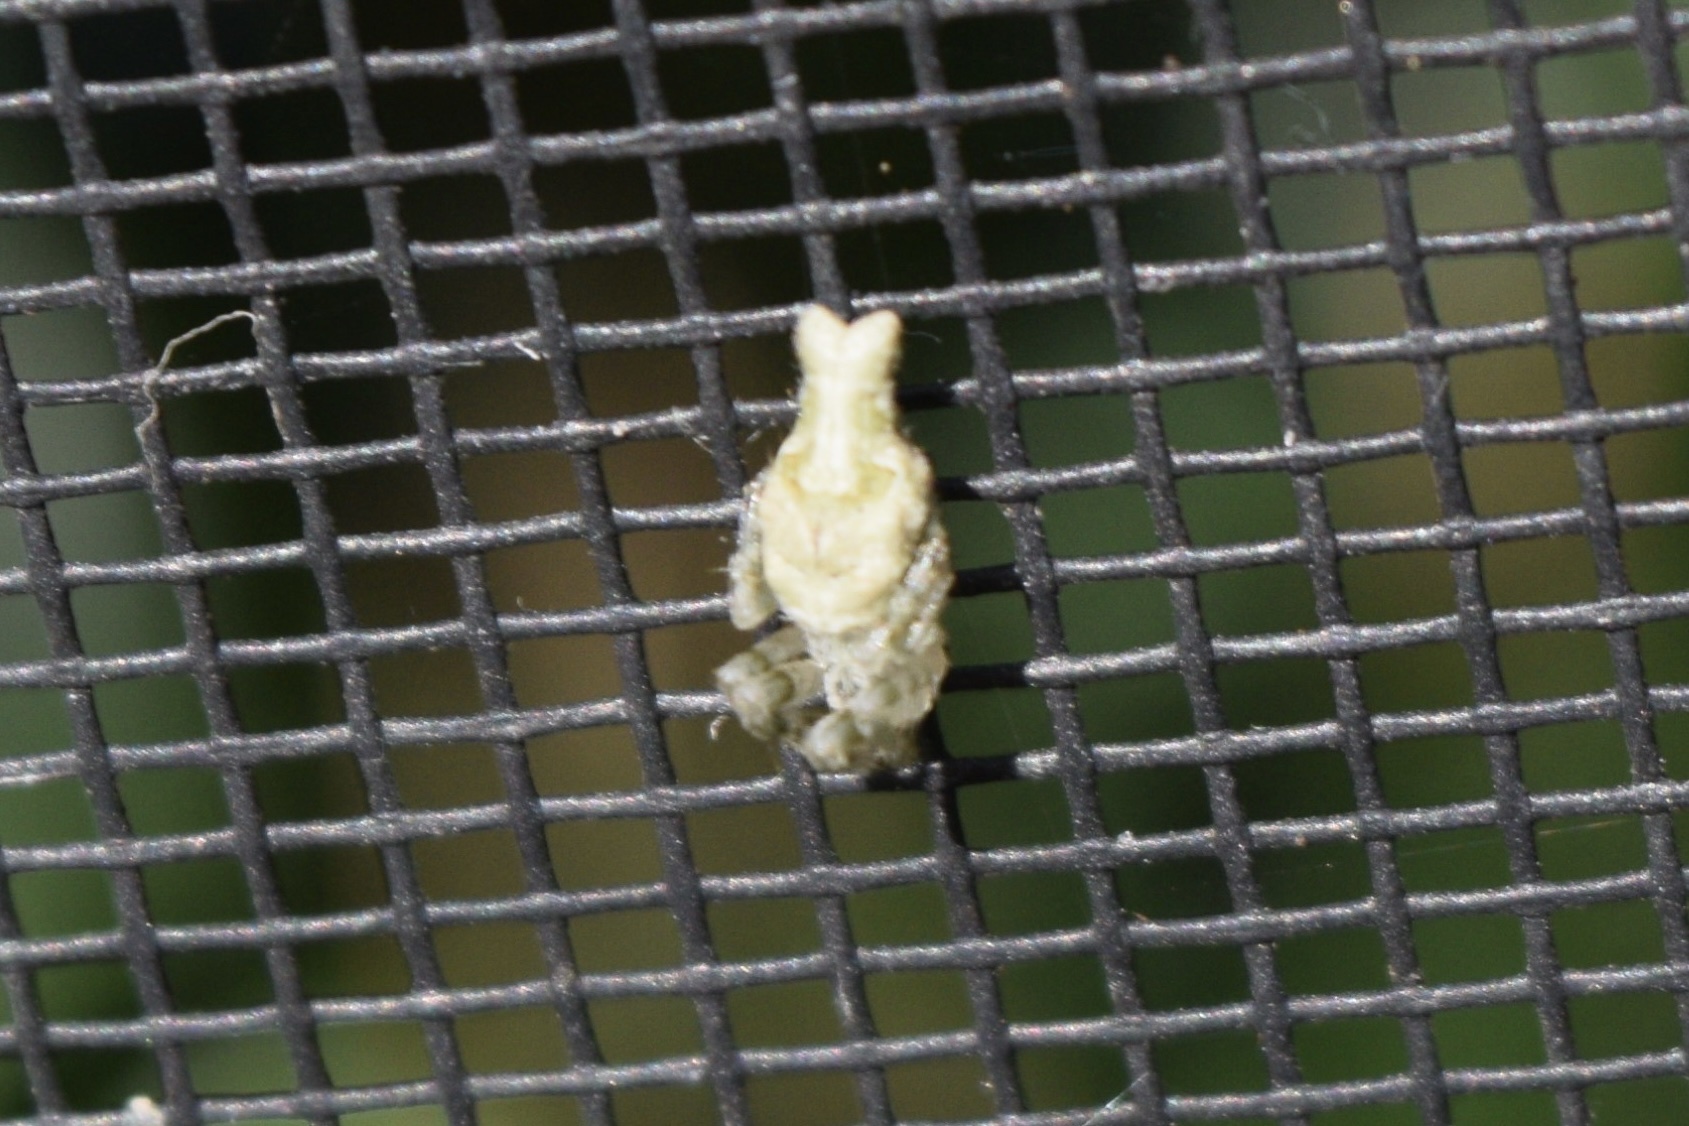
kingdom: Animalia
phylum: Arthropoda
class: Arachnida
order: Araneae
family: Araneidae
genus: Allocyclosa
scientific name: Allocyclosa bifurca
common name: Orb weavers
